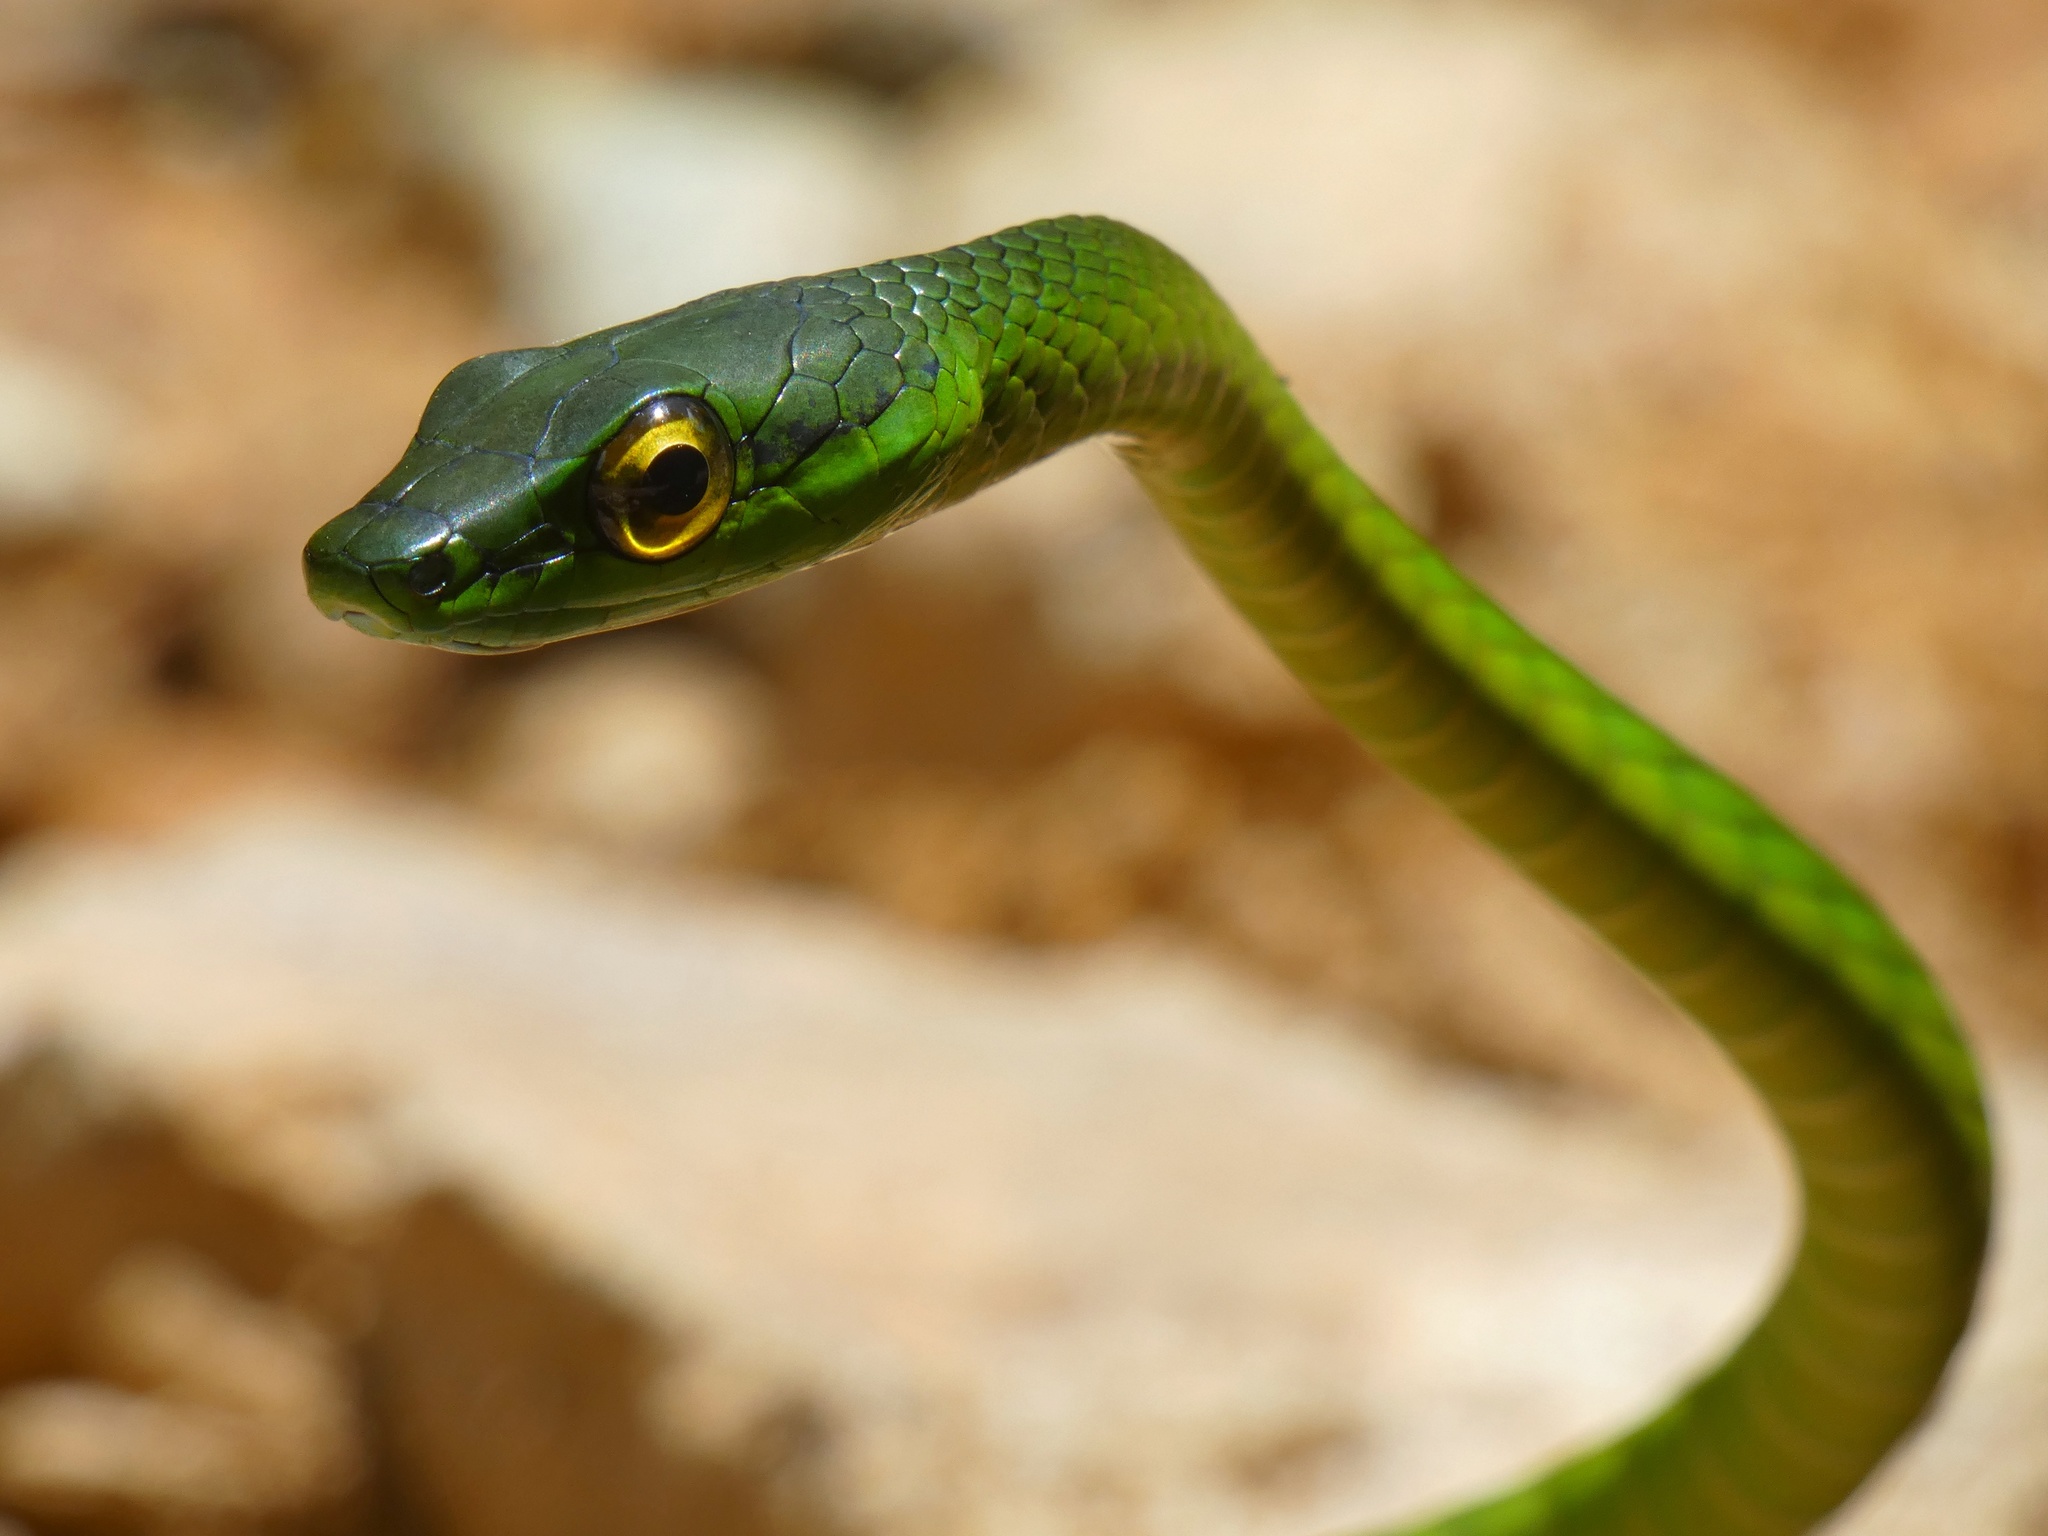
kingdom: Animalia
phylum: Chordata
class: Squamata
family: Colubridae
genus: Leptophis
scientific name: Leptophis ahaetulla
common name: Parrot snake
